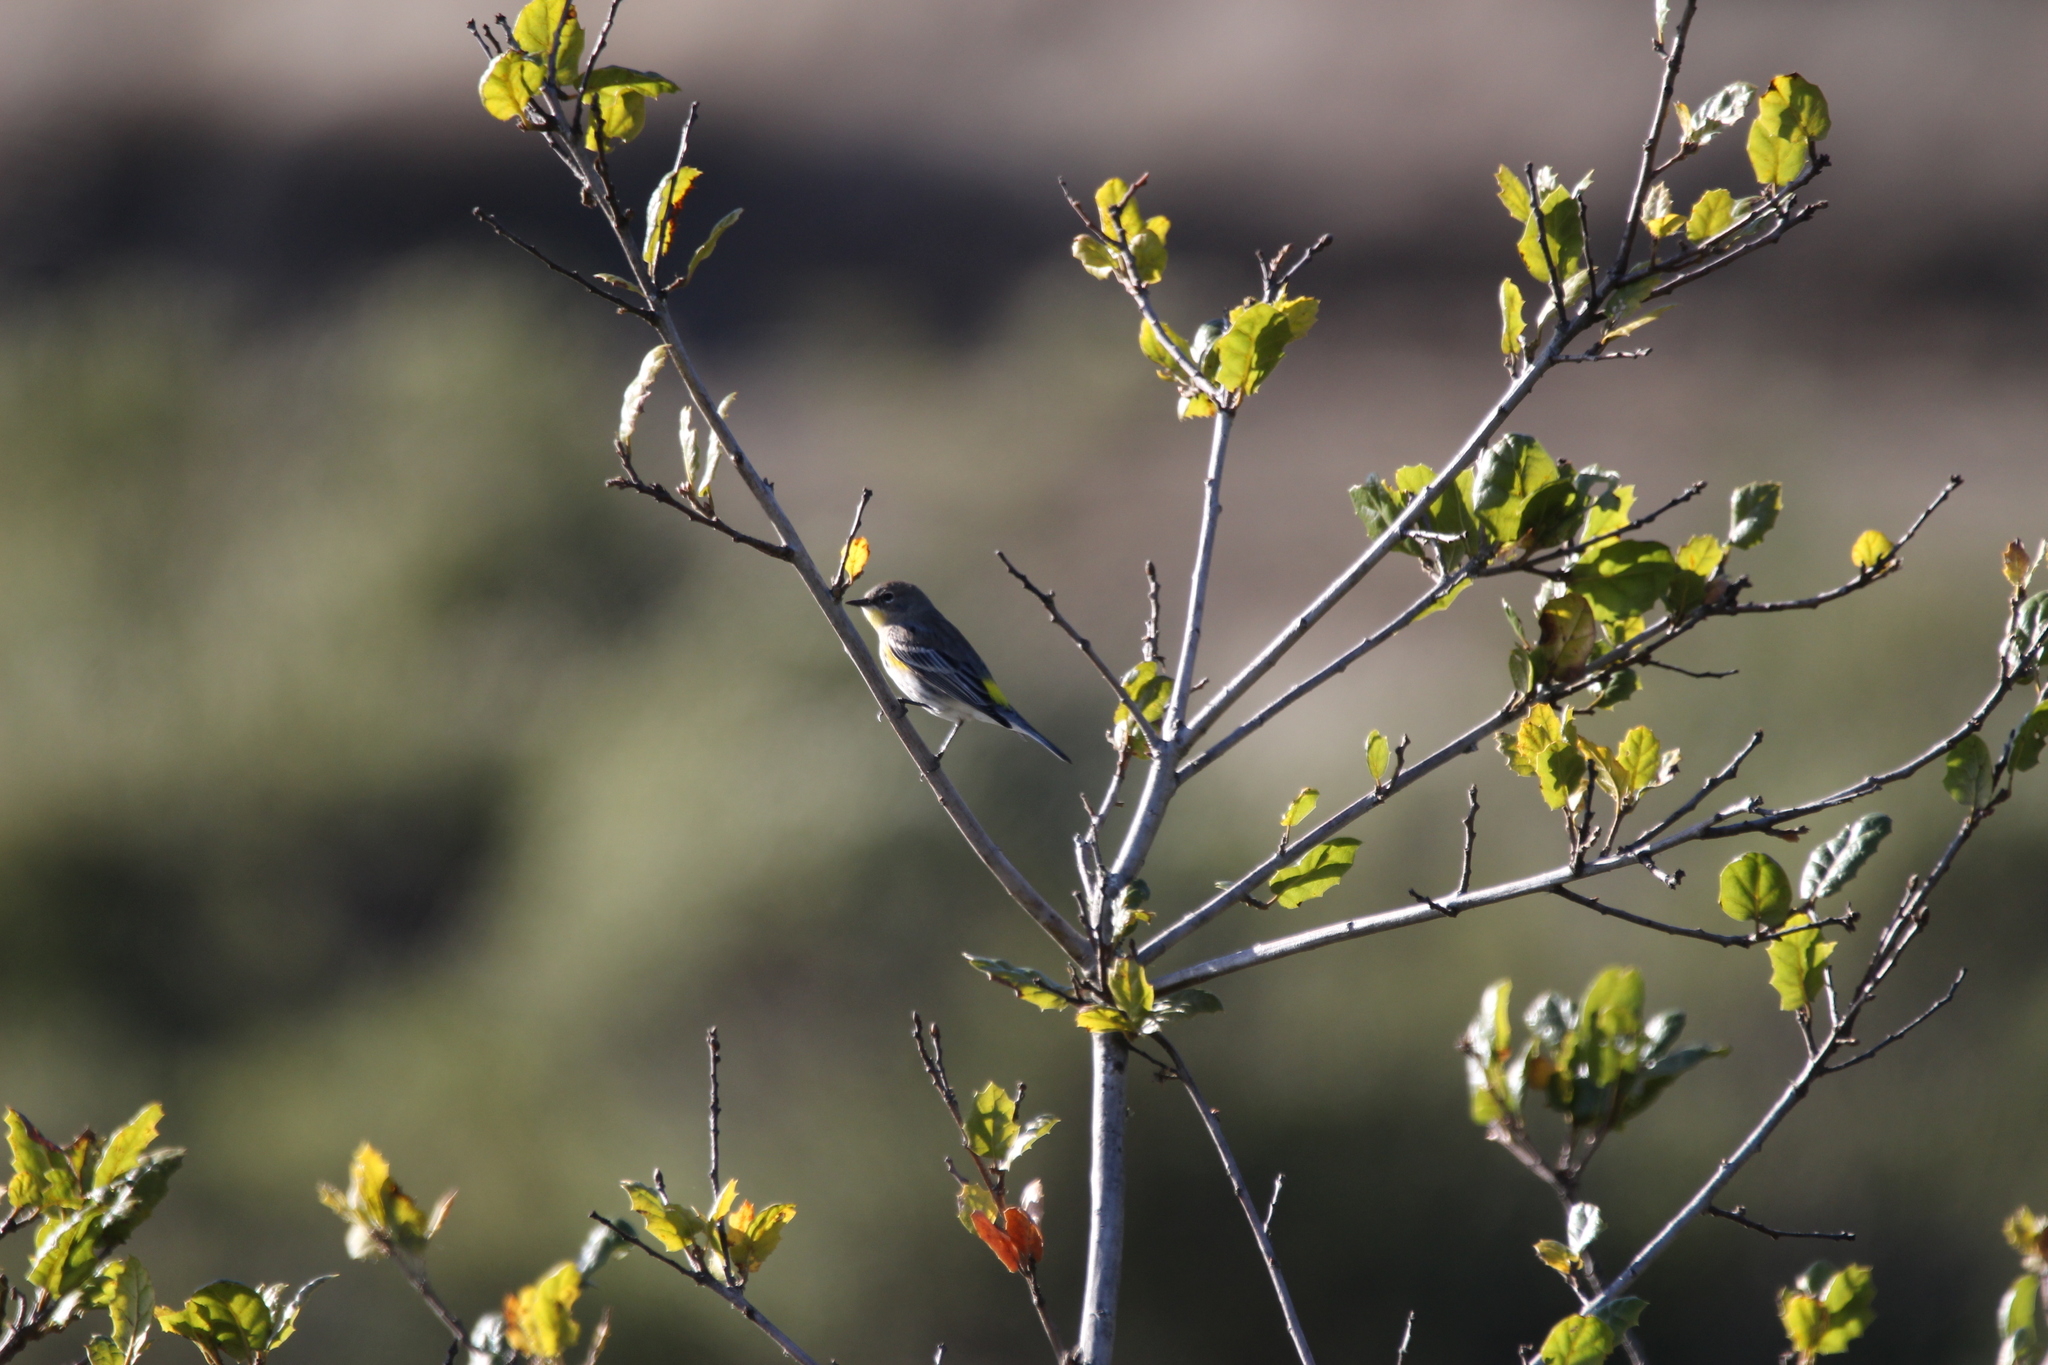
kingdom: Animalia
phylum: Chordata
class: Aves
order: Passeriformes
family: Parulidae
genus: Setophaga
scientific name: Setophaga coronata
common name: Myrtle warbler
